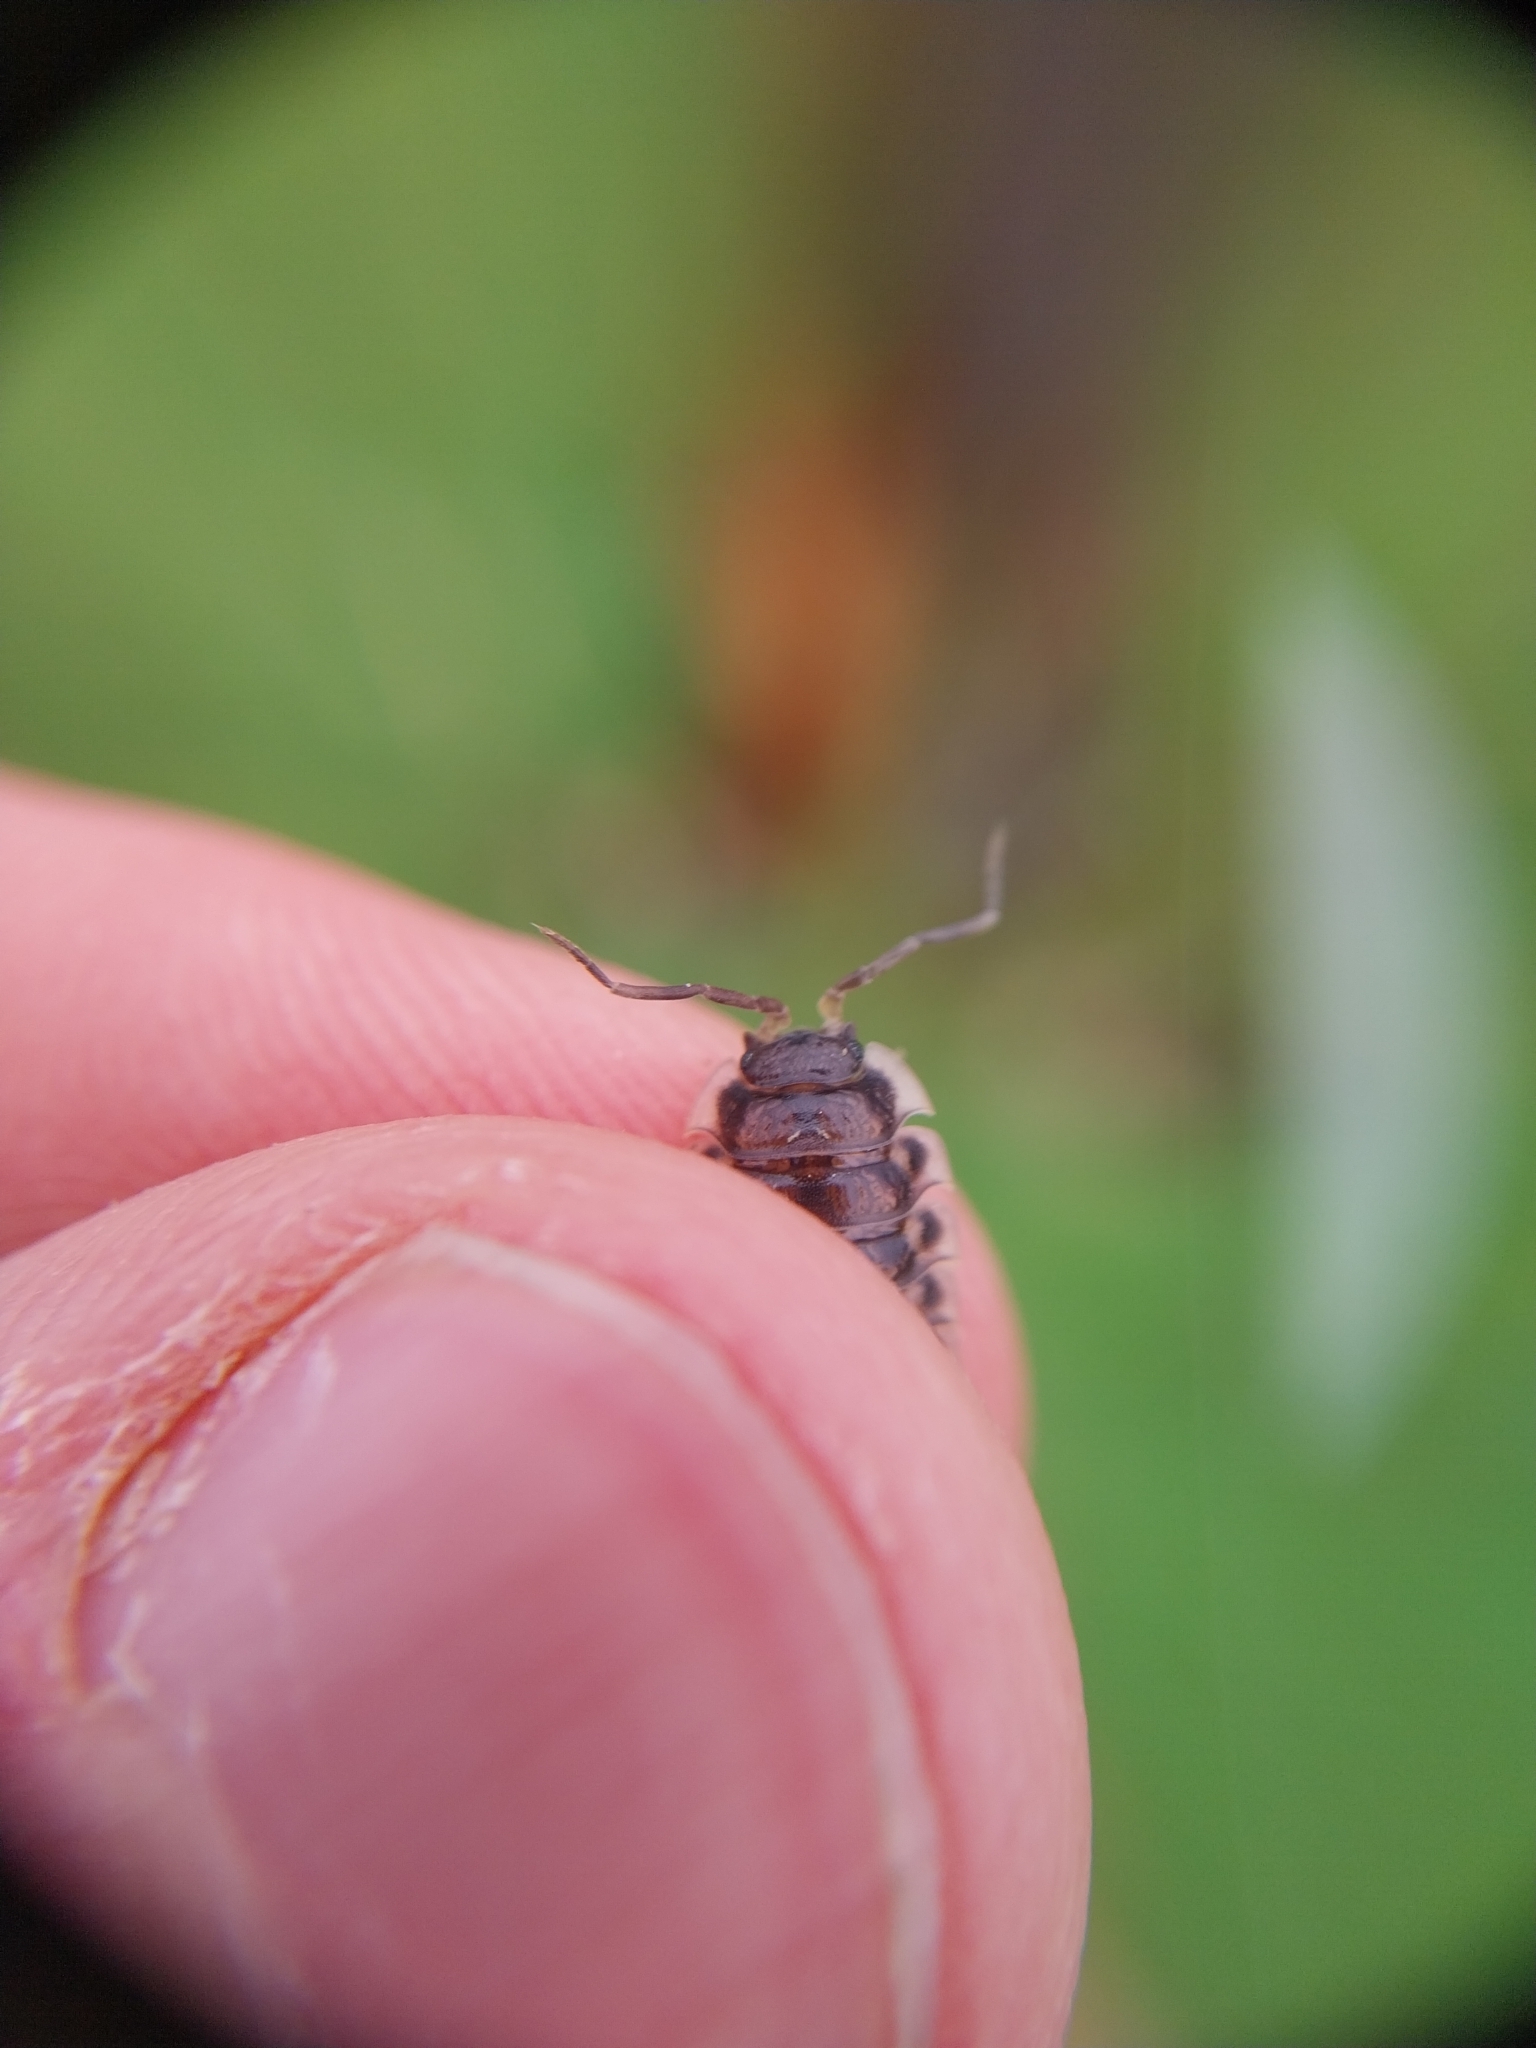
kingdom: Animalia
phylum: Arthropoda
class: Malacostraca
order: Isopoda
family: Oniscidae
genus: Oniscus
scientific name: Oniscus asellus
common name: Common shiny woodlouse
